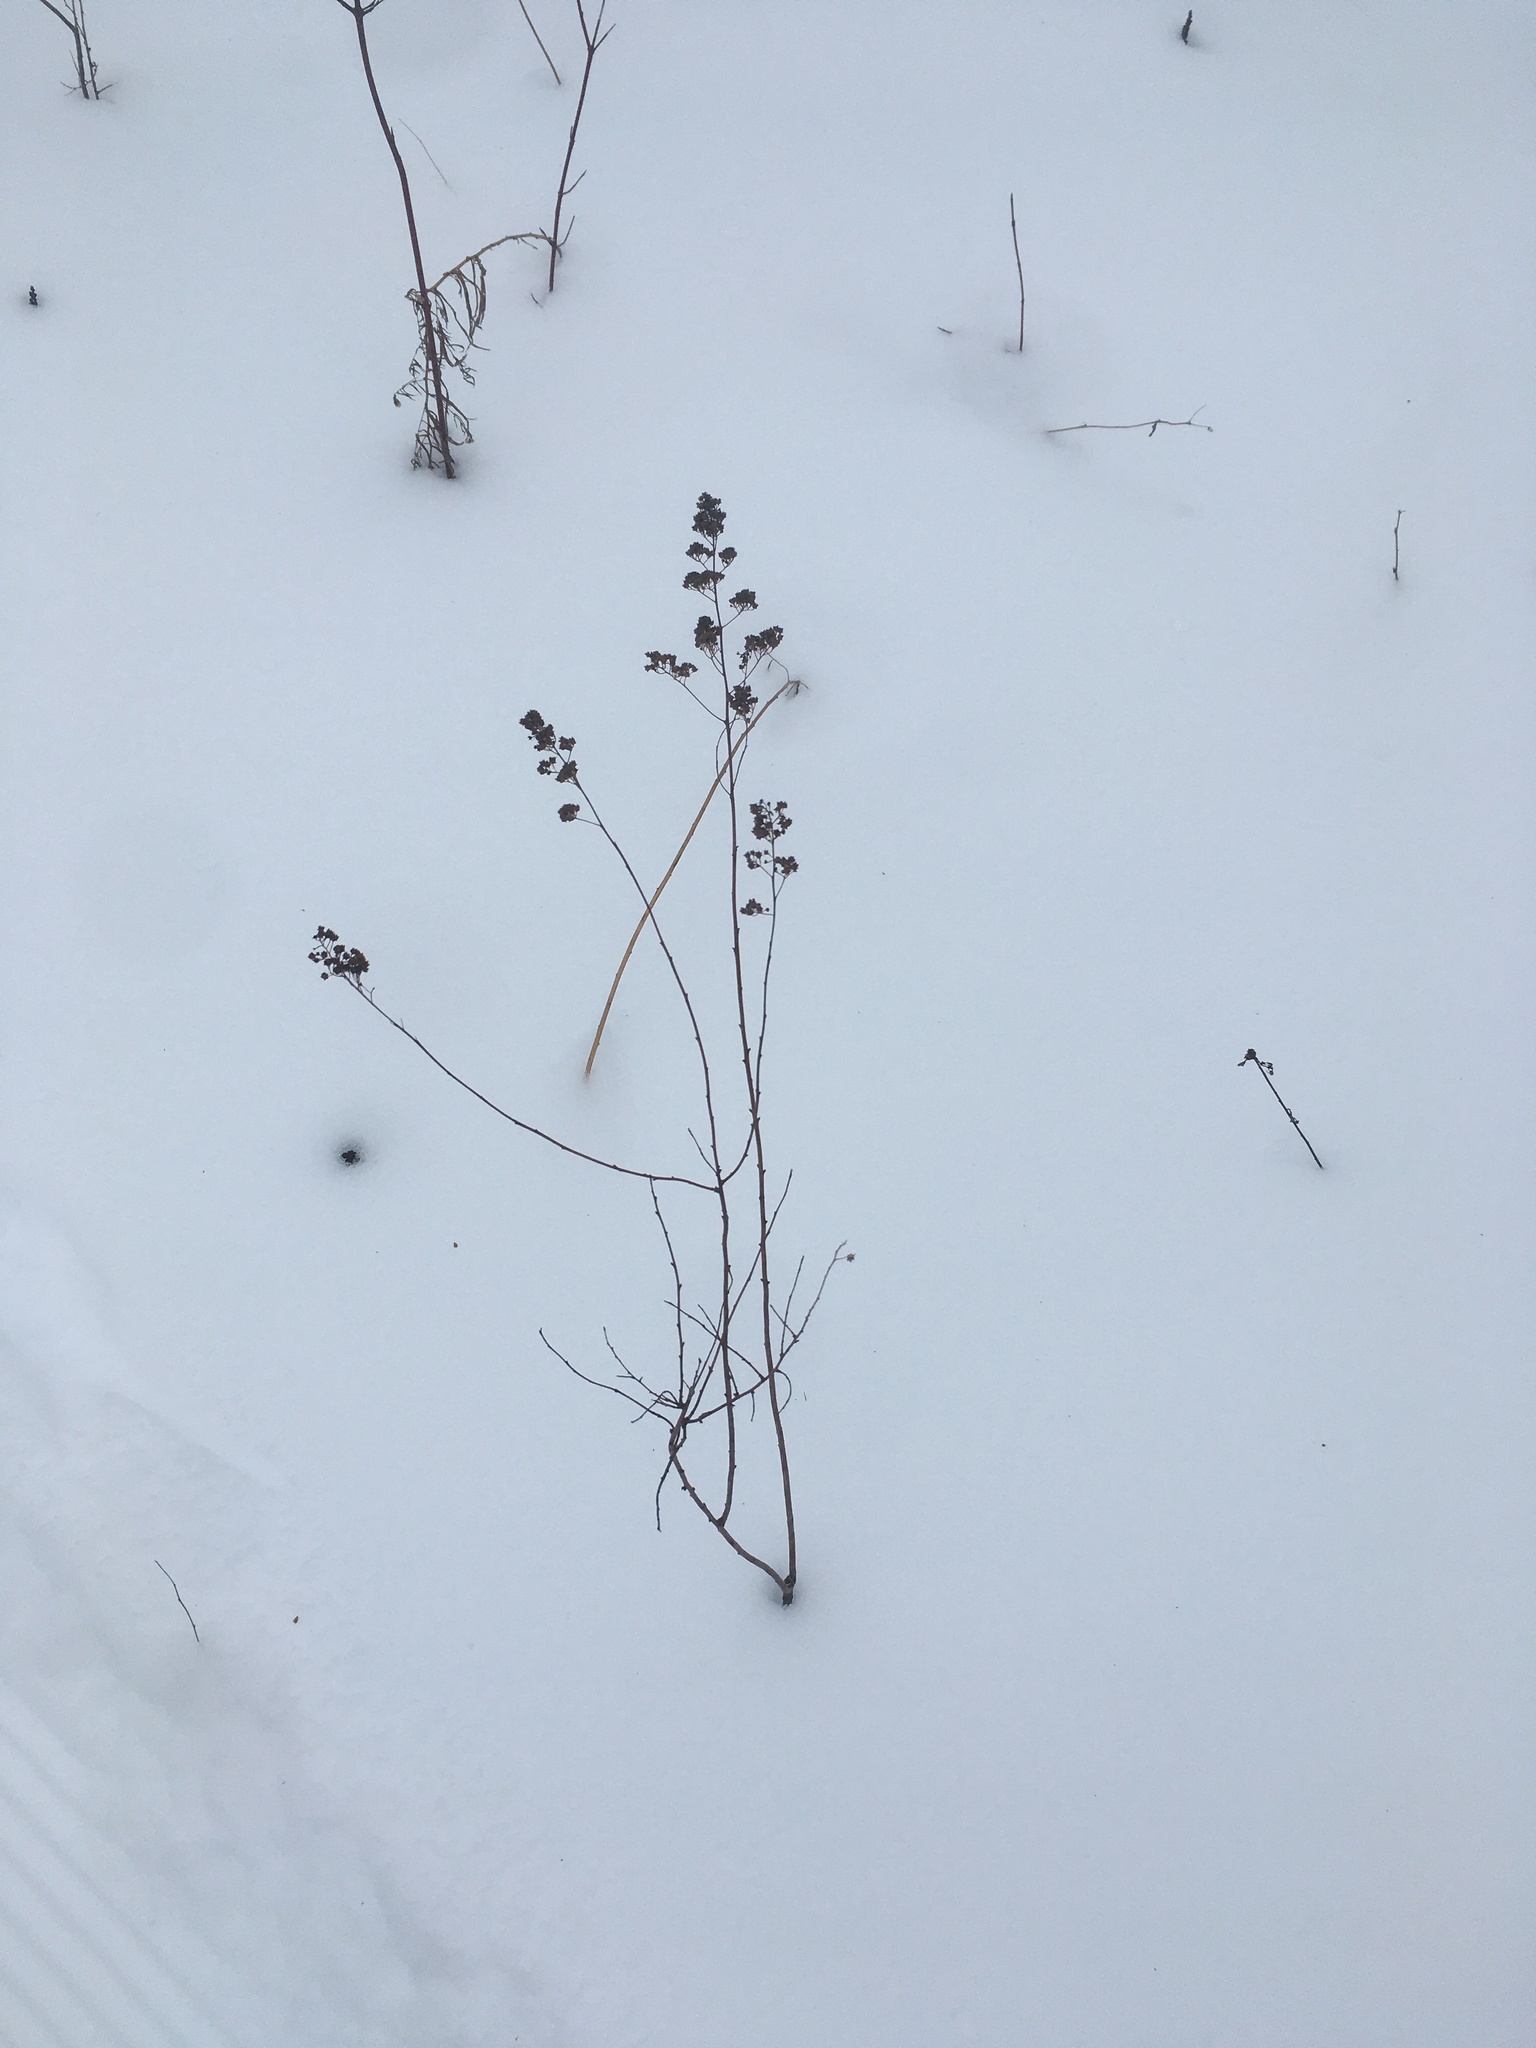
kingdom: Plantae
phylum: Tracheophyta
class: Magnoliopsida
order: Rosales
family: Rosaceae
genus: Spiraea
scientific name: Spiraea alba
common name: Pale bridewort
